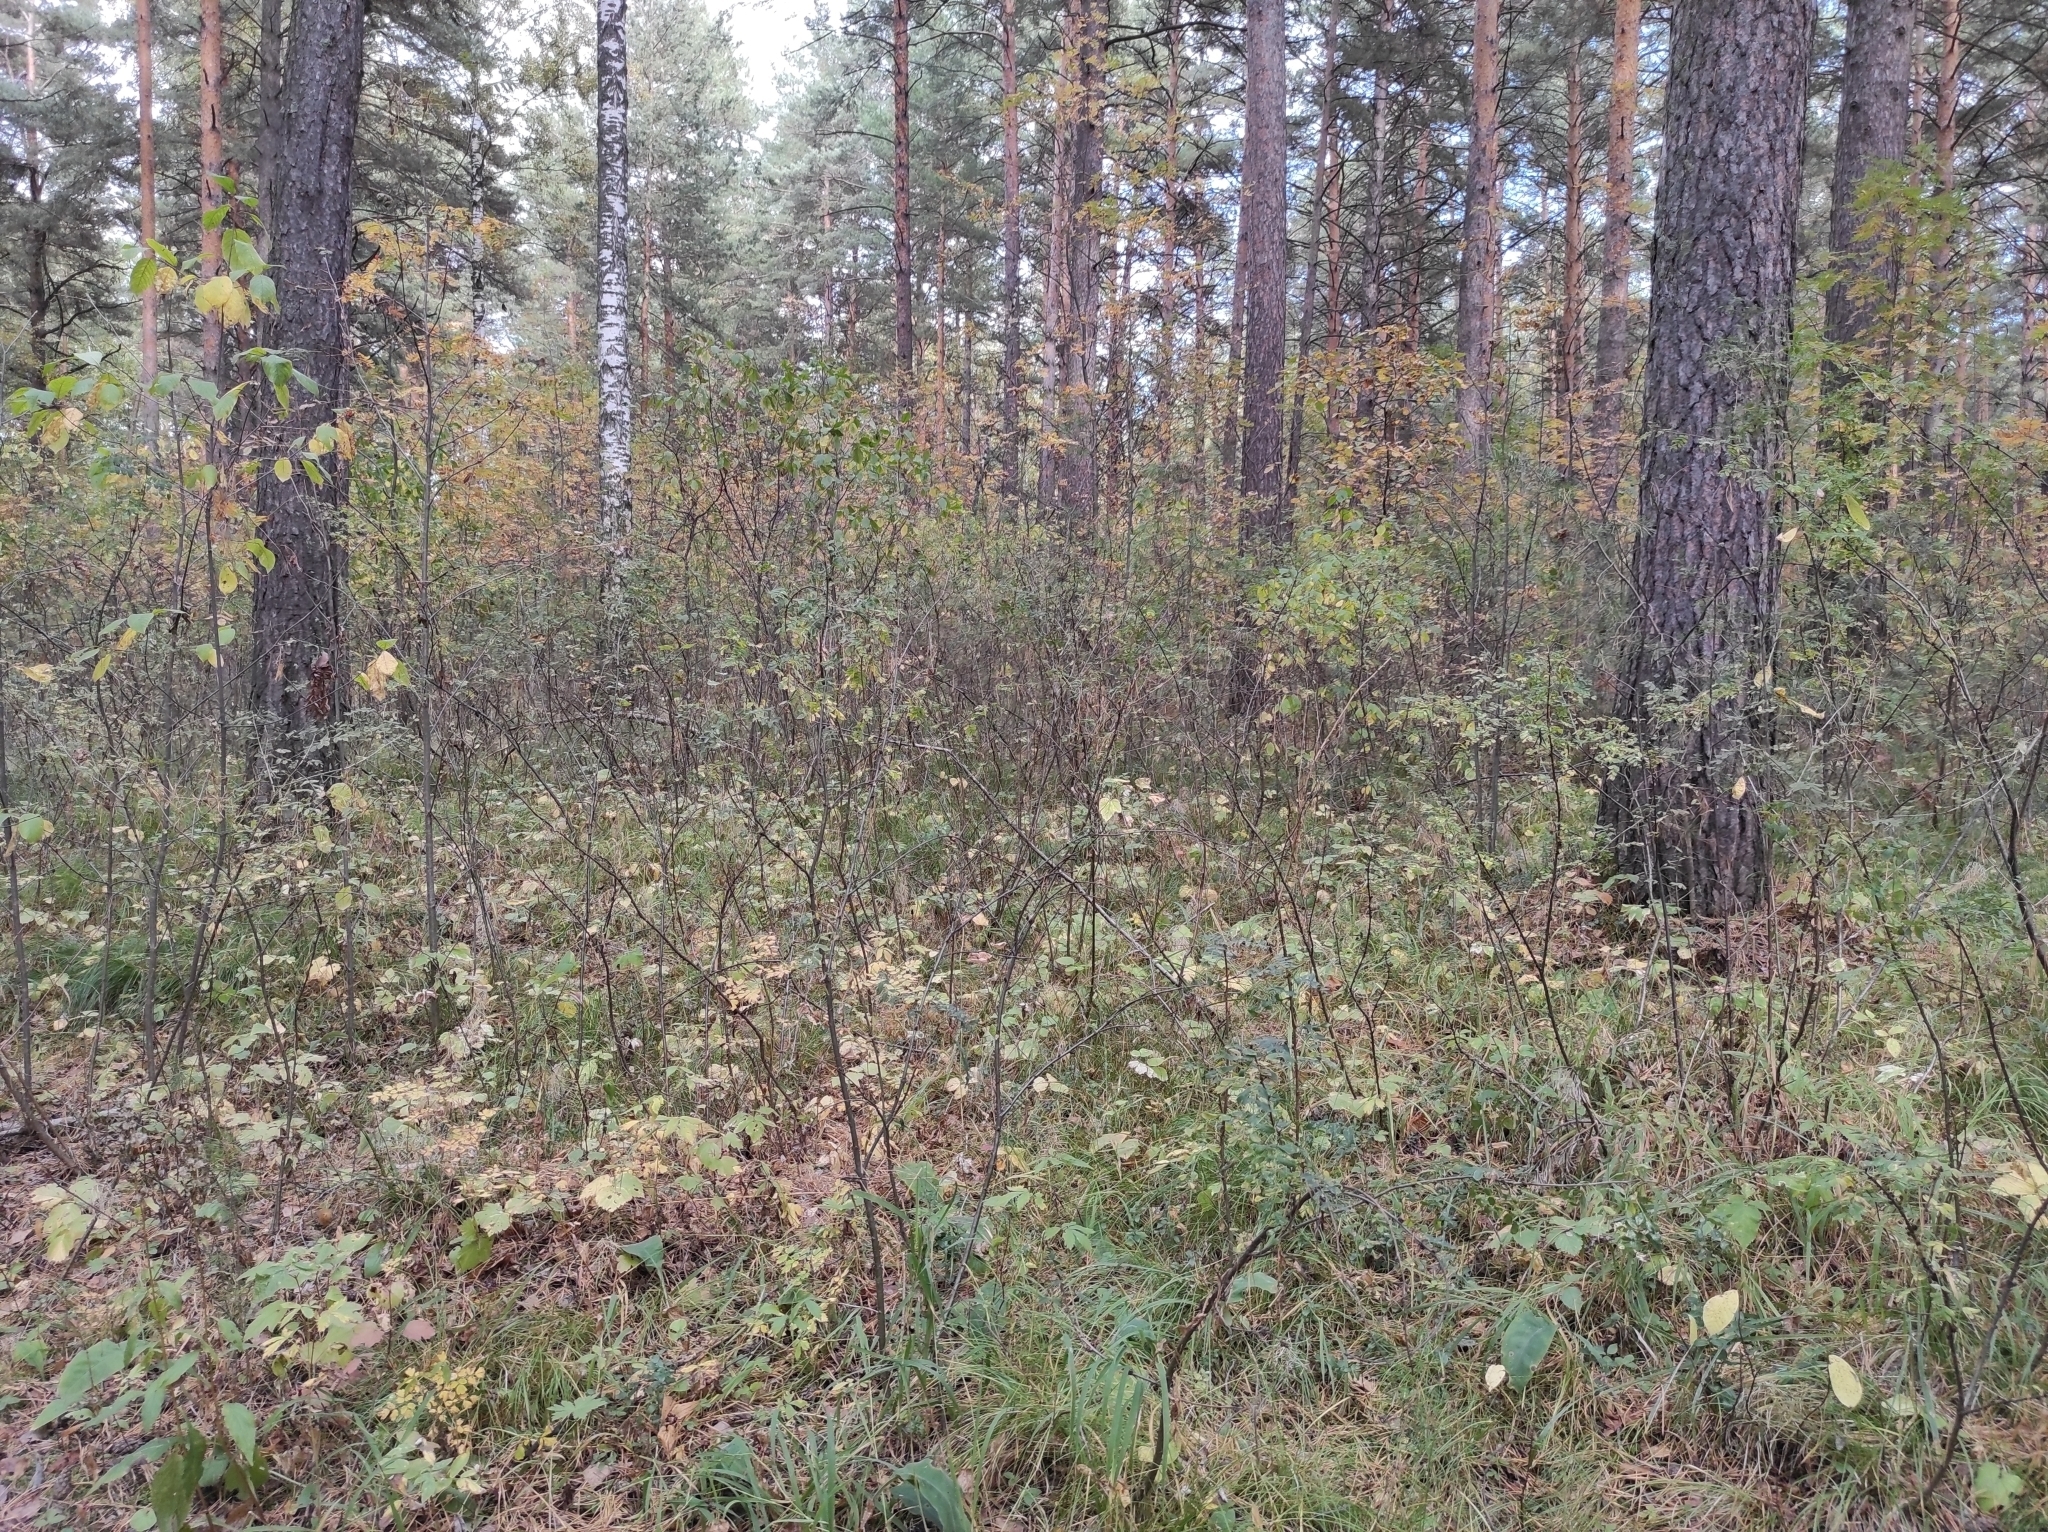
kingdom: Plantae
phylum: Tracheophyta
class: Magnoliopsida
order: Rosales
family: Rosaceae
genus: Prunus
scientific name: Prunus padus
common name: Bird cherry
